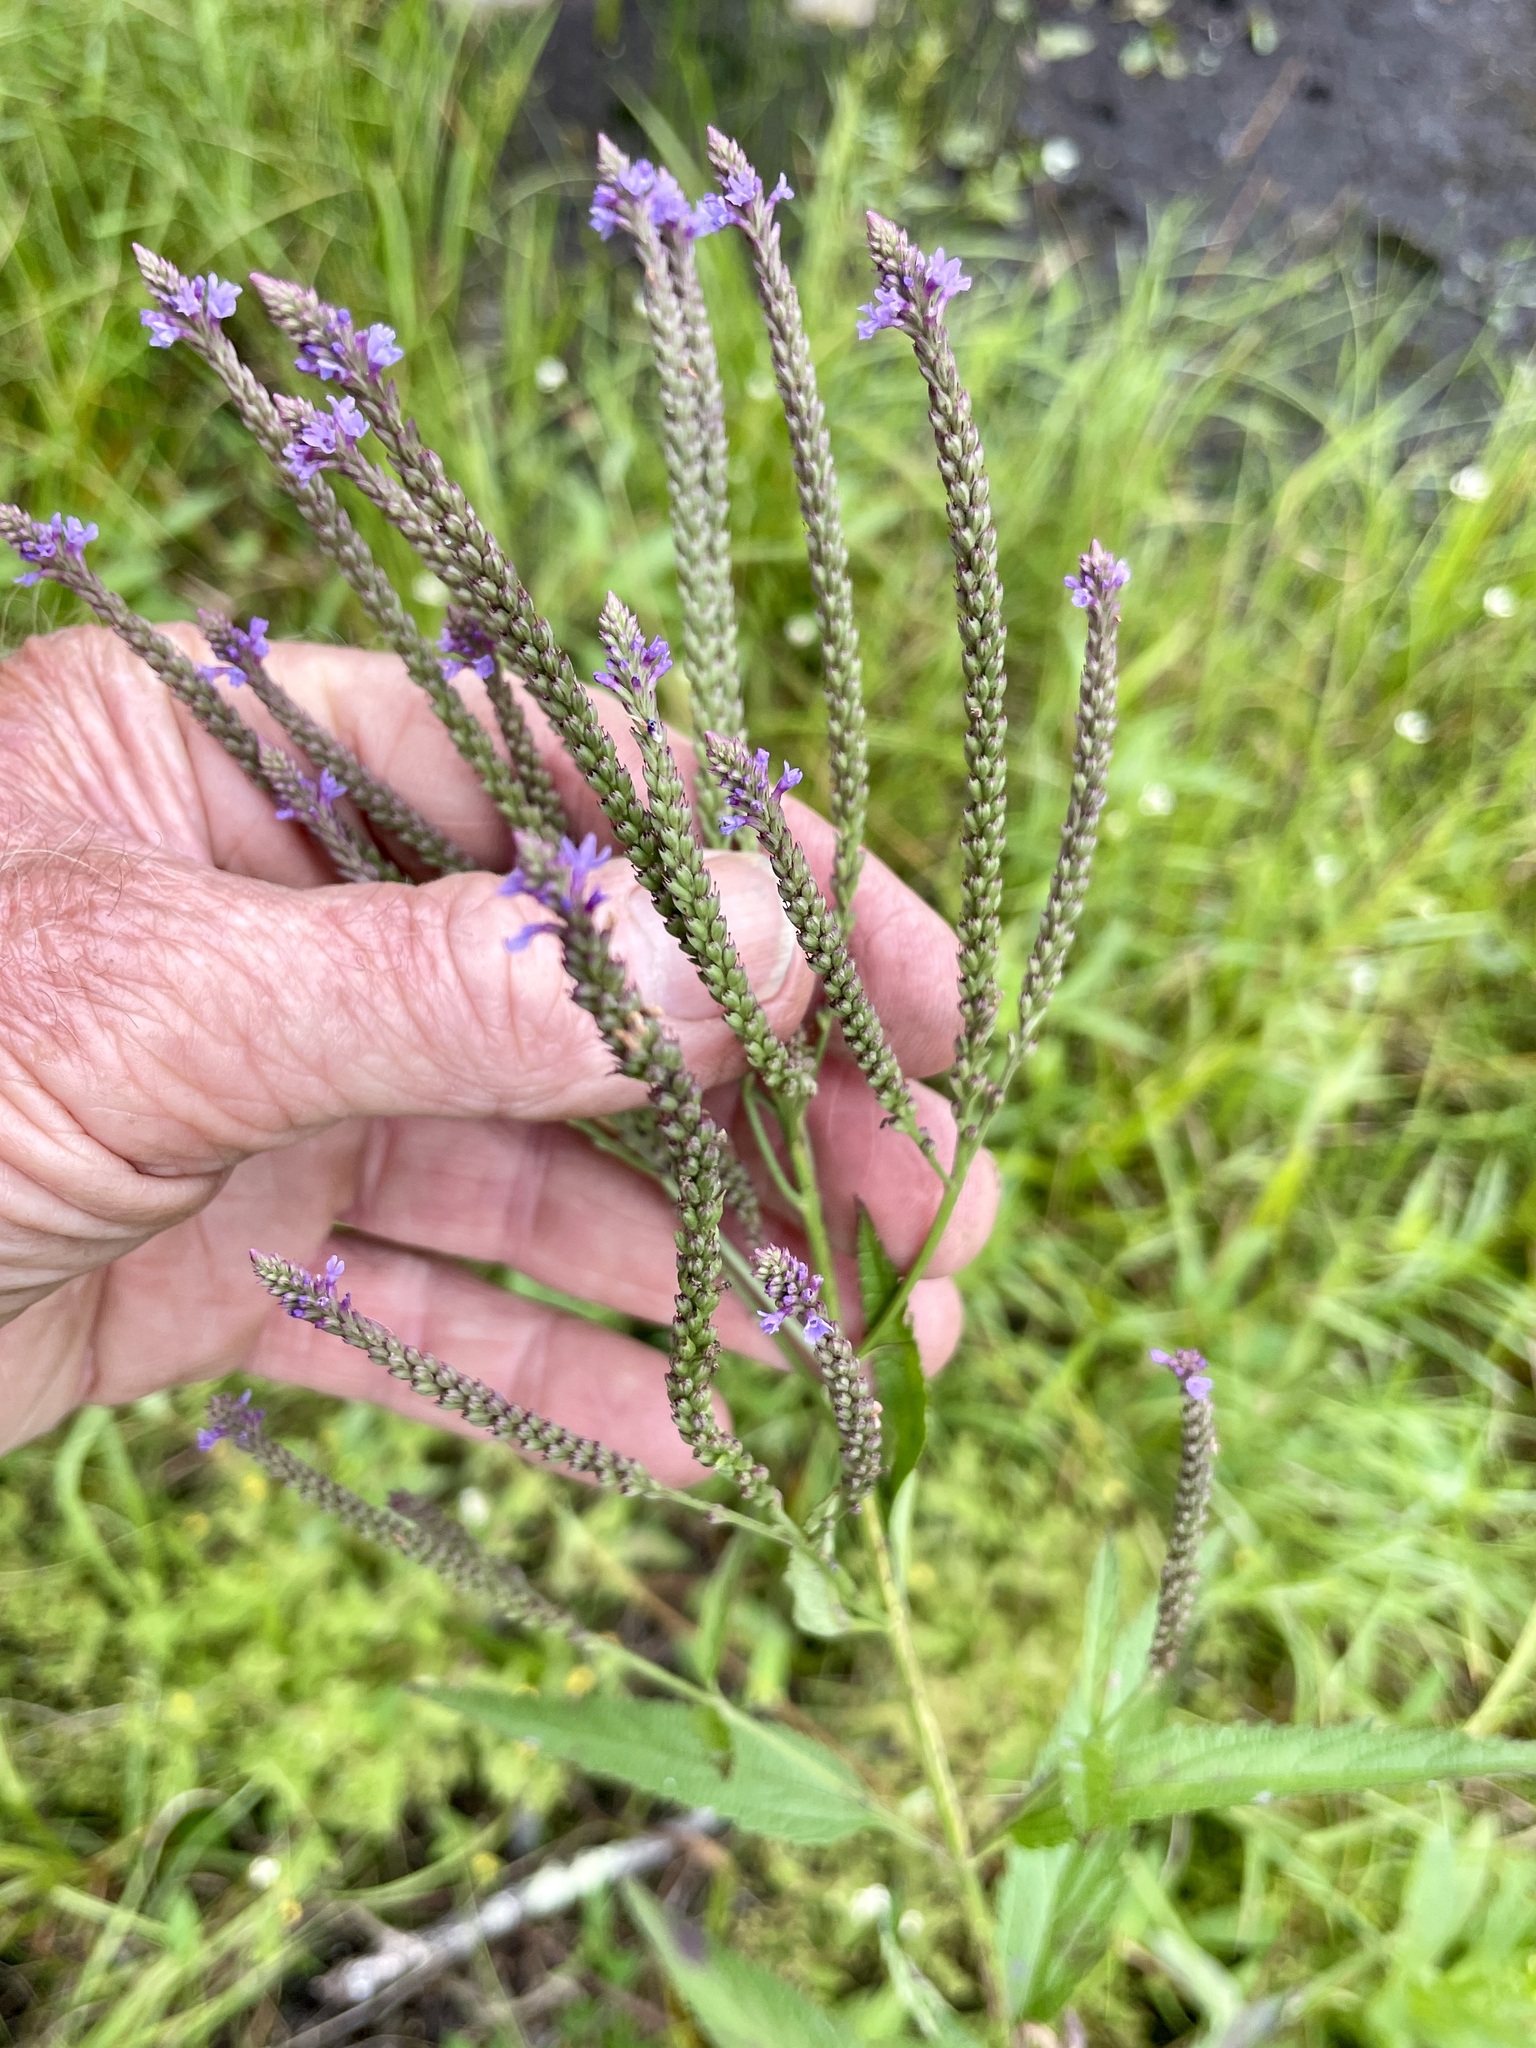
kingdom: Plantae
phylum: Tracheophyta
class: Magnoliopsida
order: Lamiales
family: Verbenaceae
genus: Verbena
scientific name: Verbena hastata
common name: American blue vervain
